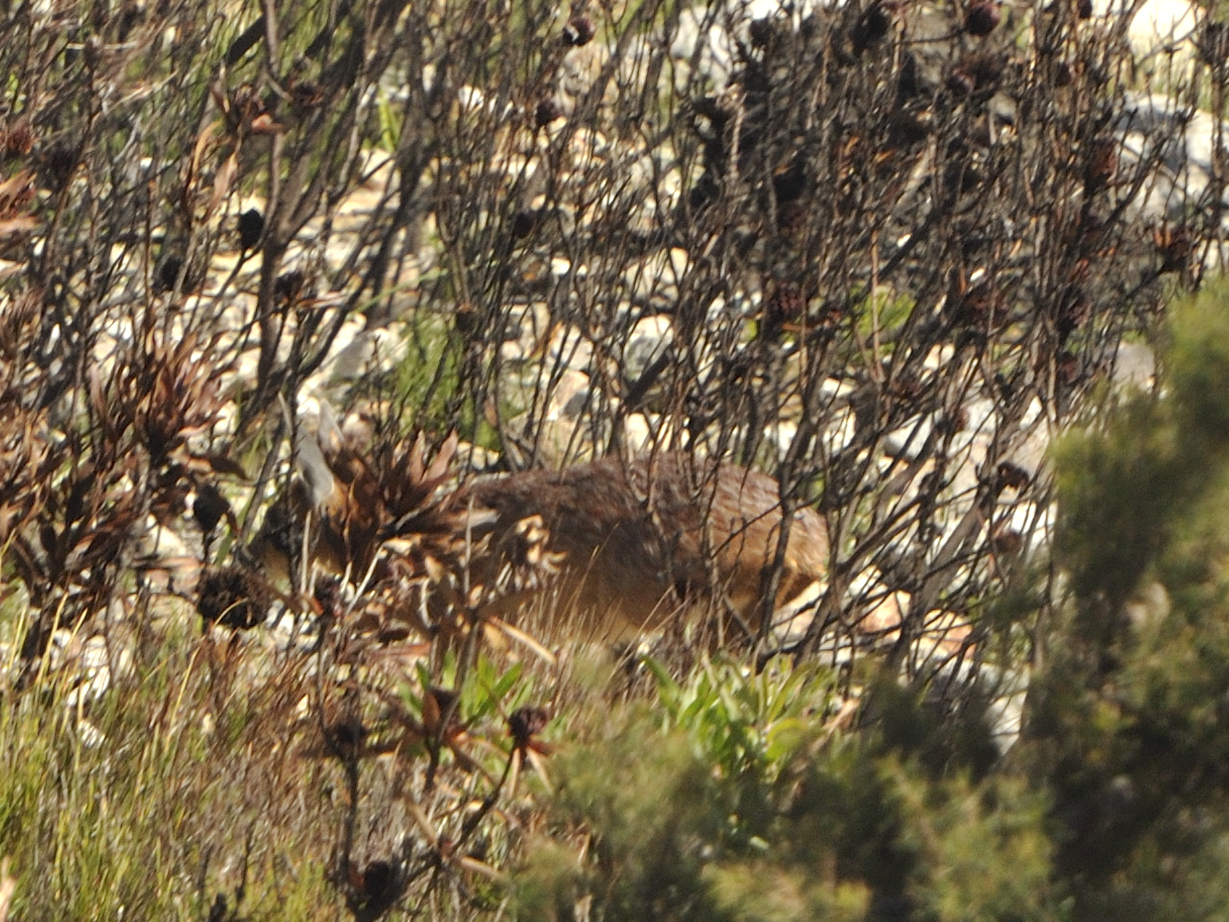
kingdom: Animalia
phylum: Chordata
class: Mammalia
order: Artiodactyla
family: Bovidae
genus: Raphicerus
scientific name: Raphicerus melanotis
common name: Cape grysbok
